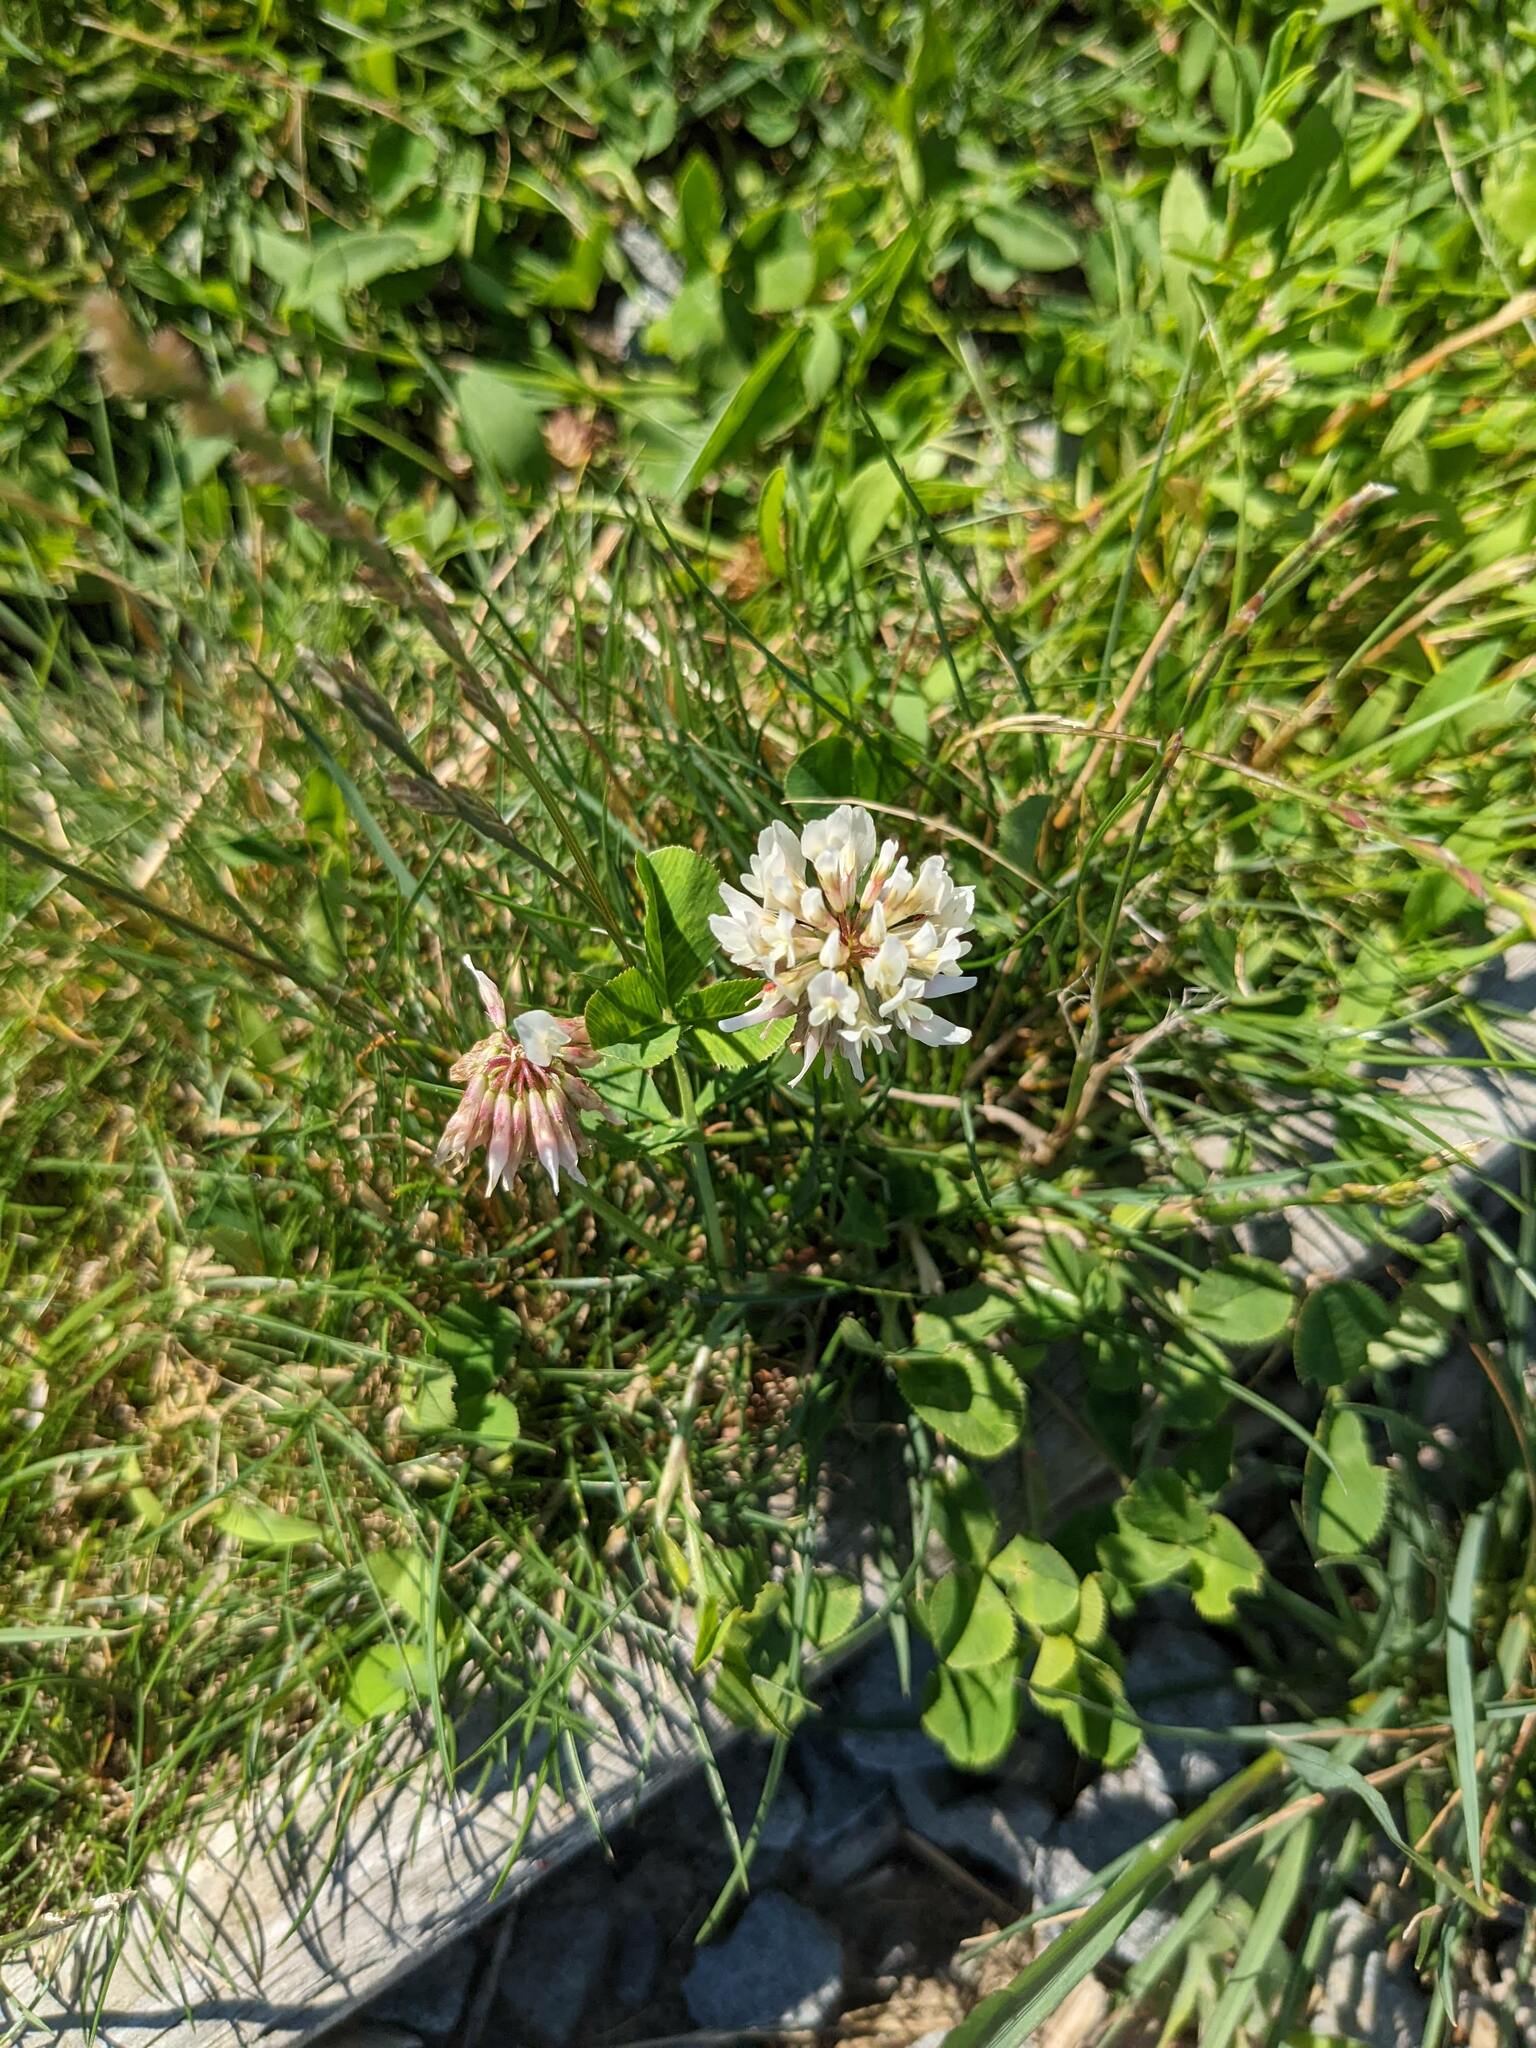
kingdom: Plantae
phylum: Tracheophyta
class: Magnoliopsida
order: Fabales
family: Fabaceae
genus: Trifolium
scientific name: Trifolium repens
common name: White clover
